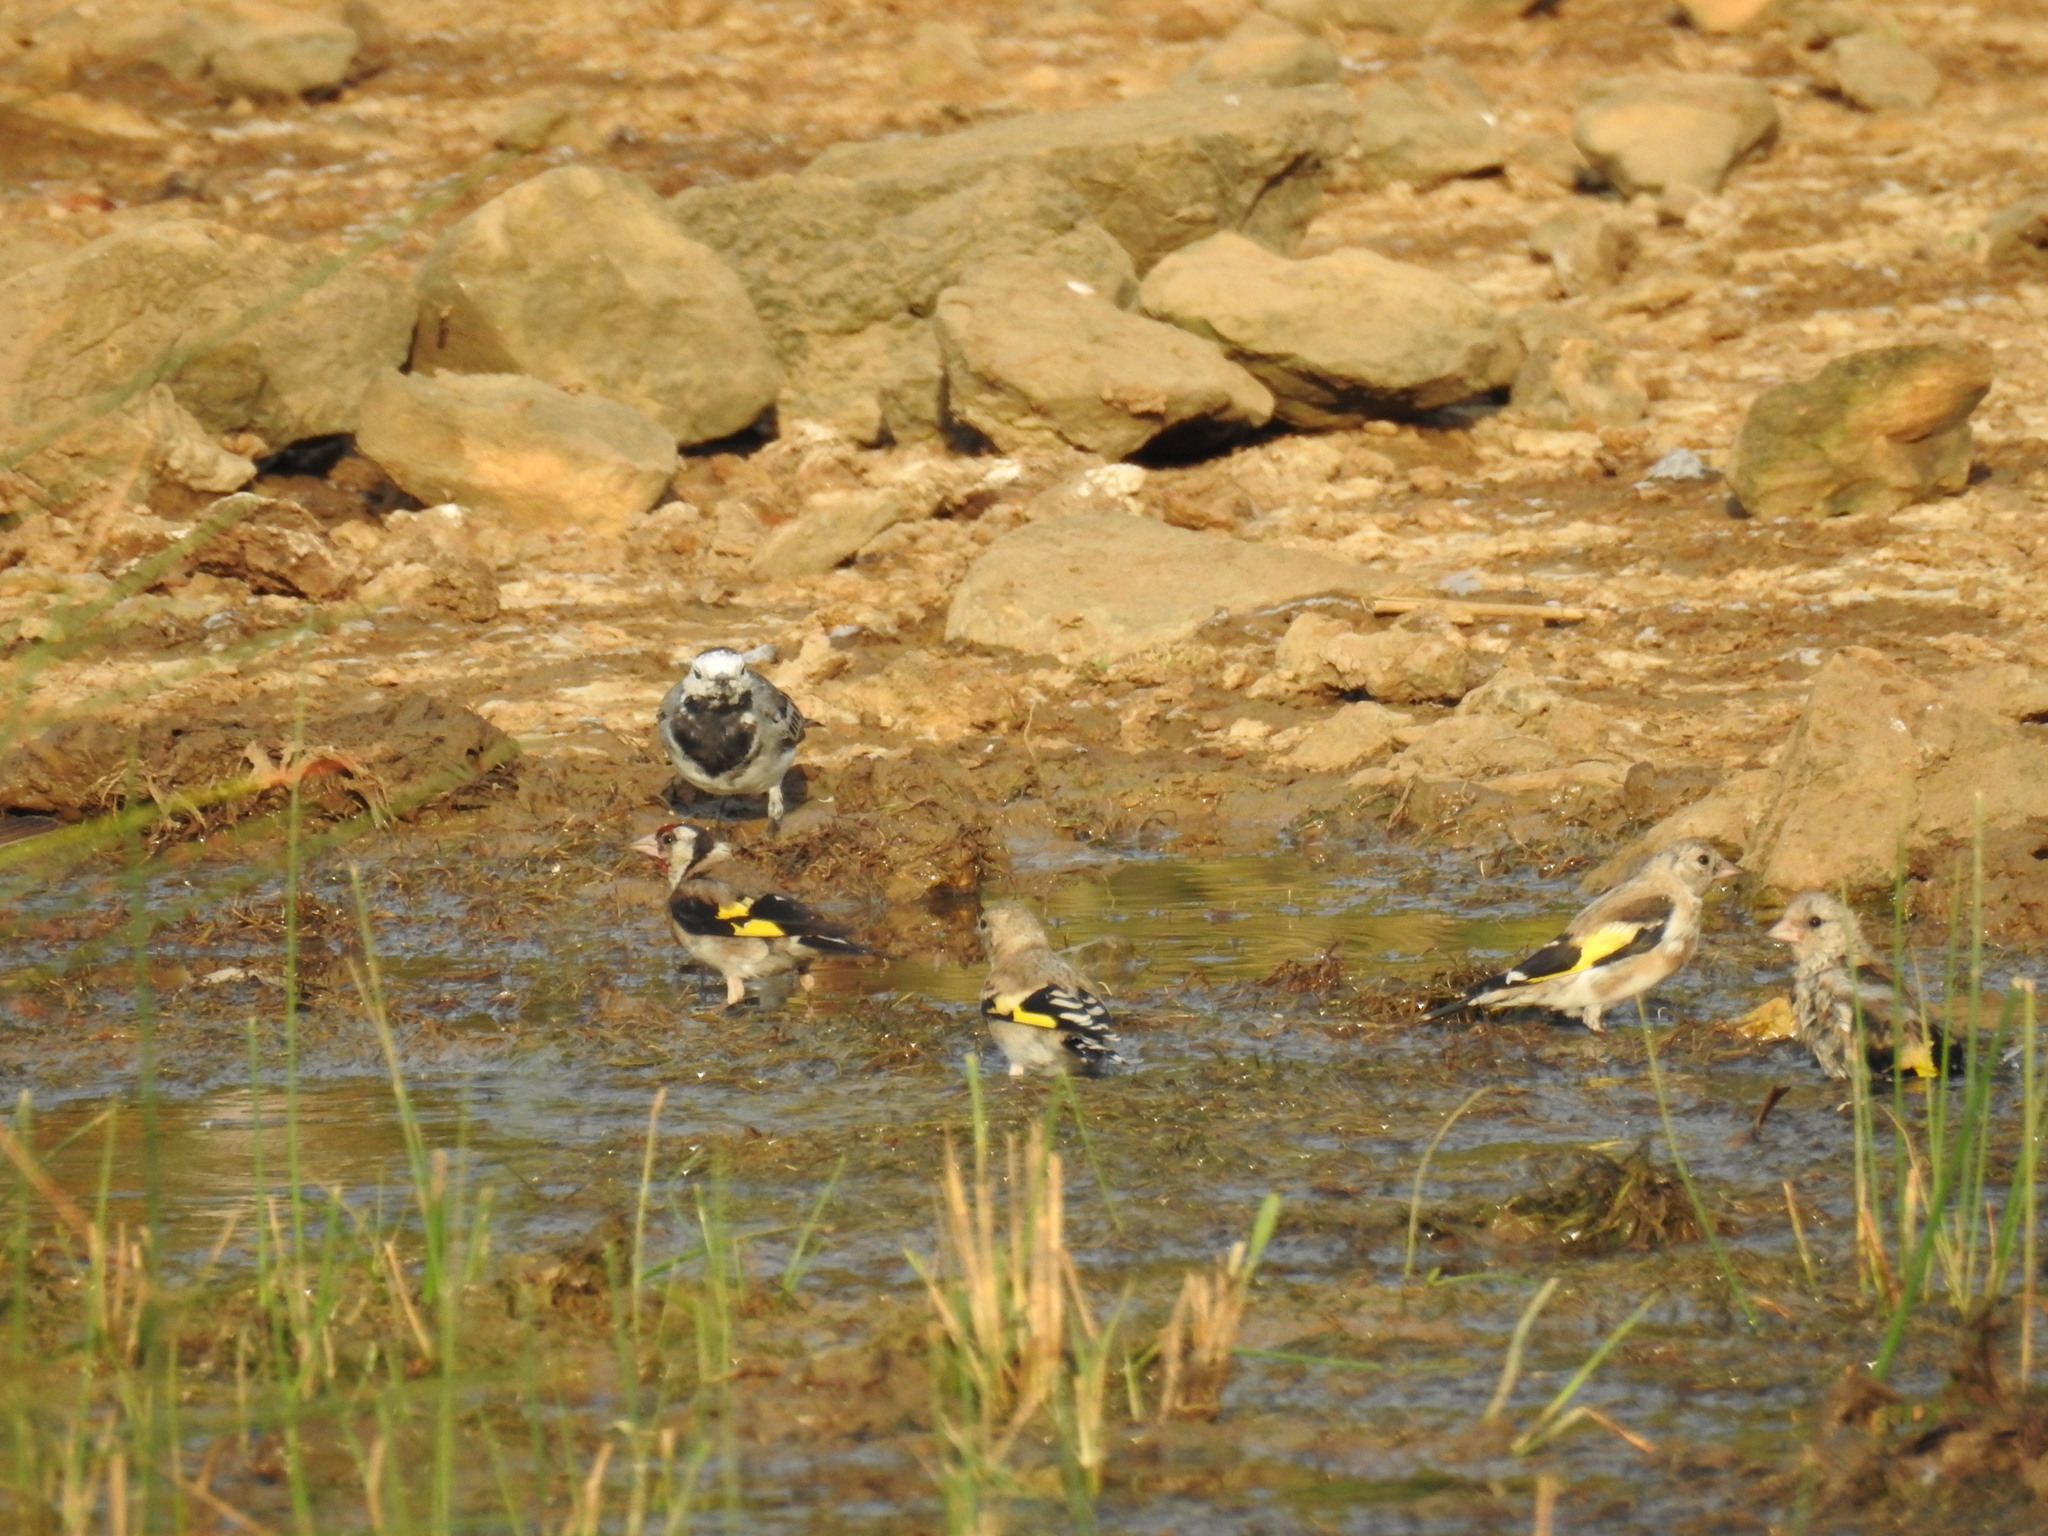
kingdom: Animalia
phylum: Chordata
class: Aves
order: Passeriformes
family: Fringillidae
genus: Carduelis
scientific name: Carduelis carduelis
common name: European goldfinch
